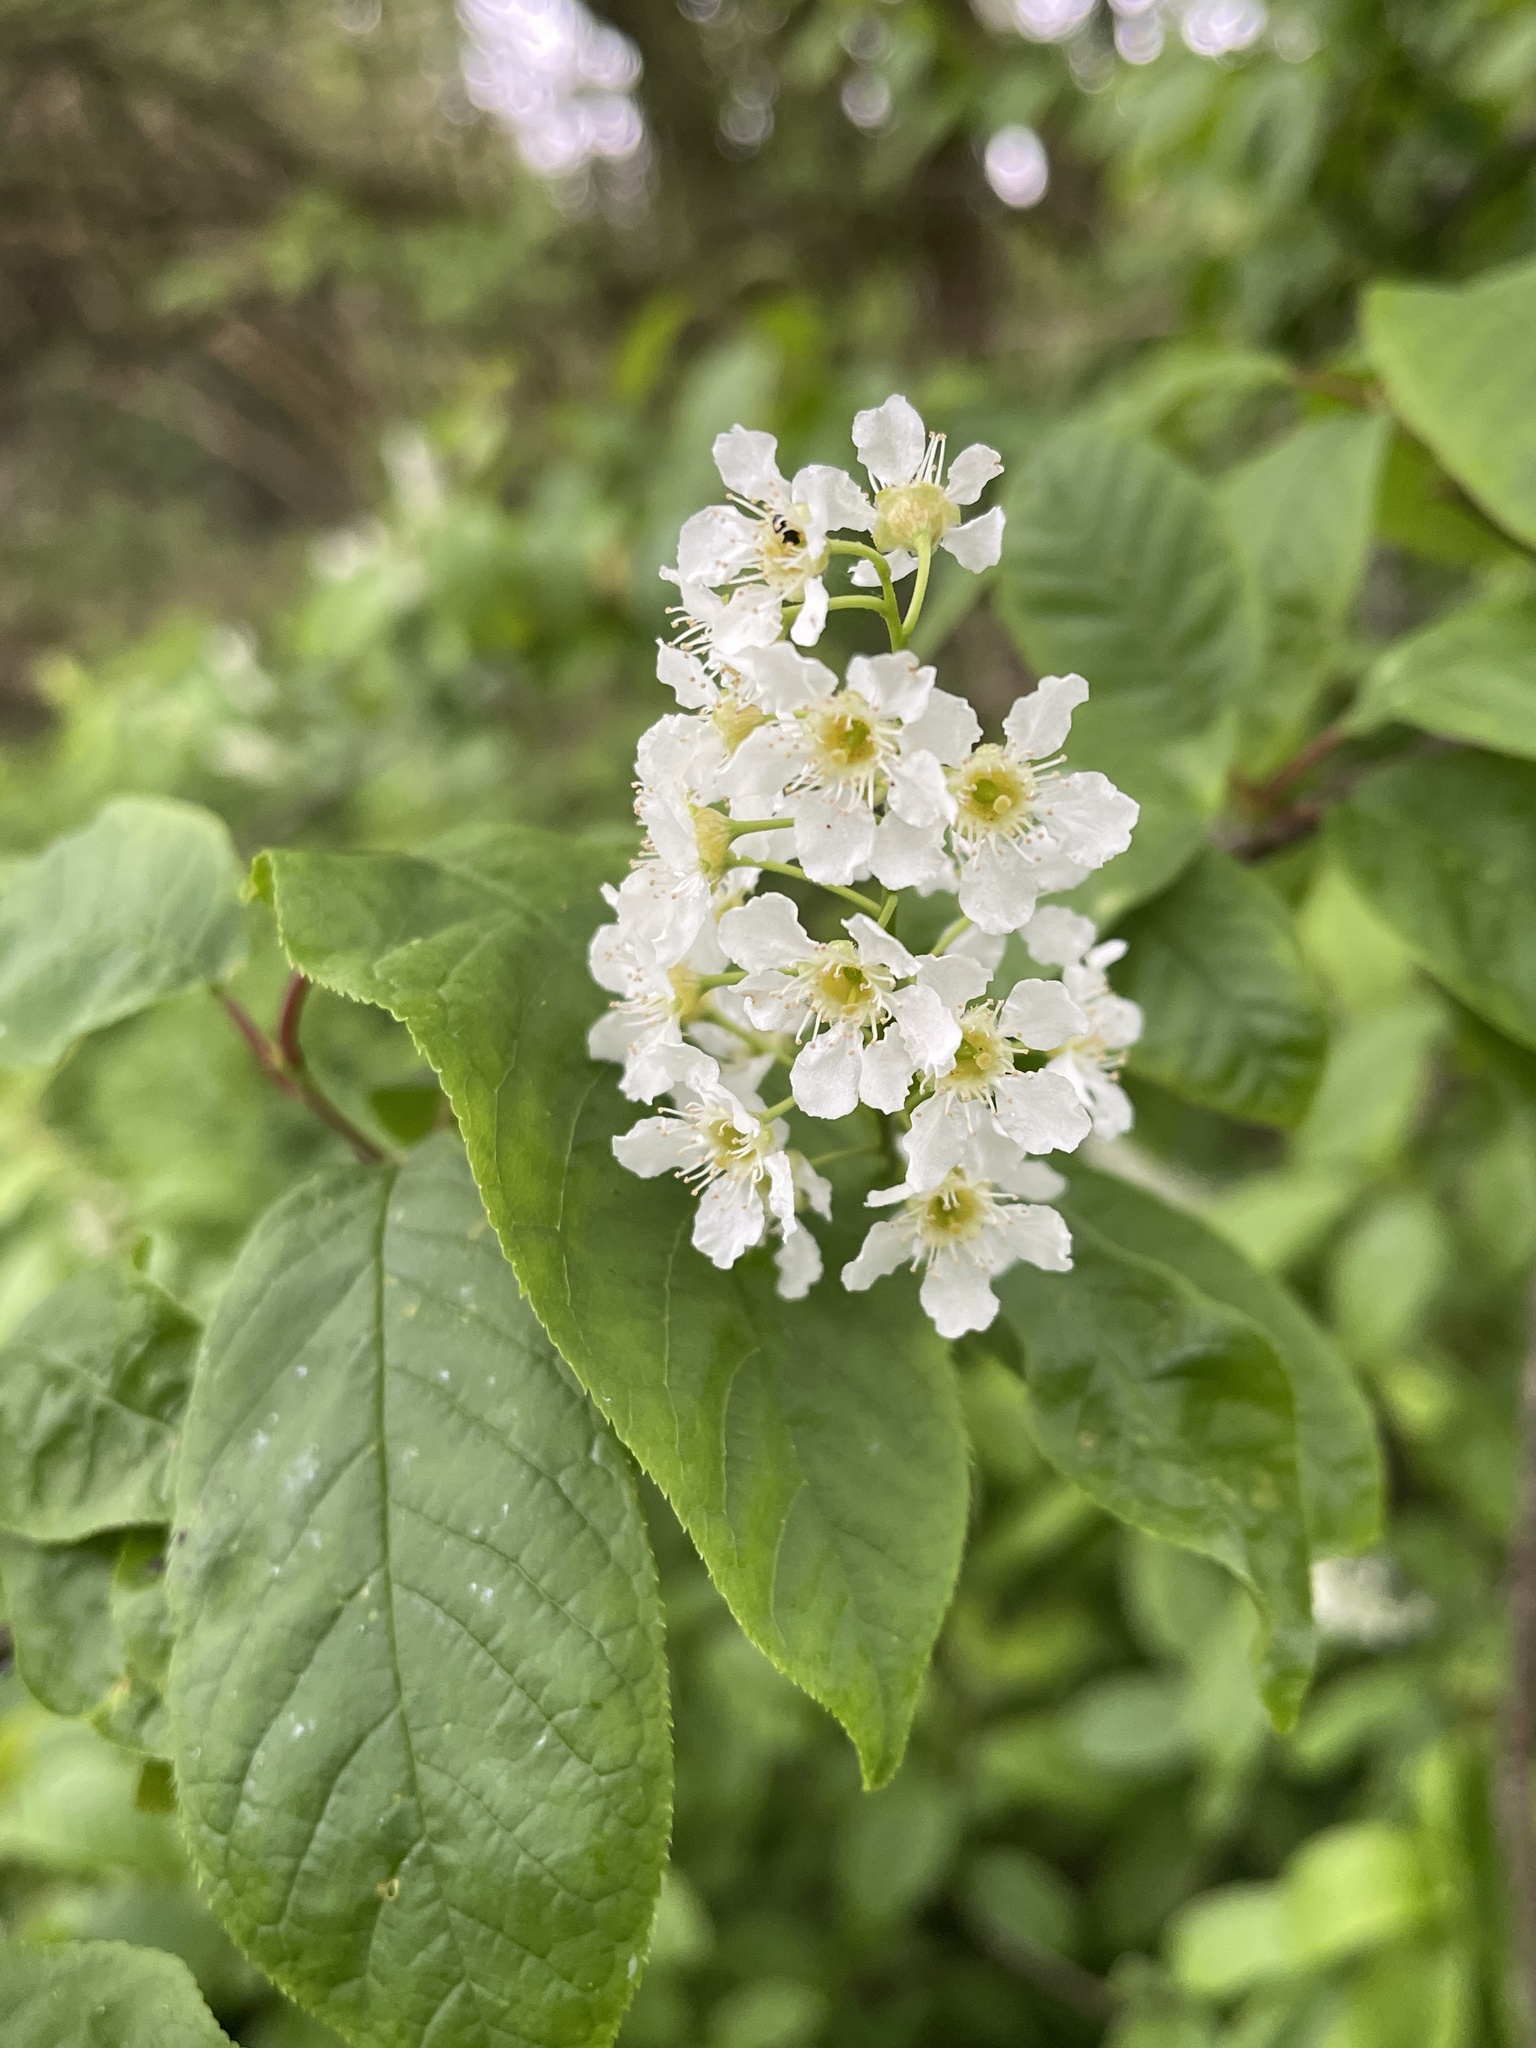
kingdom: Plantae
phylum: Tracheophyta
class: Magnoliopsida
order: Rosales
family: Rosaceae
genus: Prunus
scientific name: Prunus padus
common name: Bird cherry
